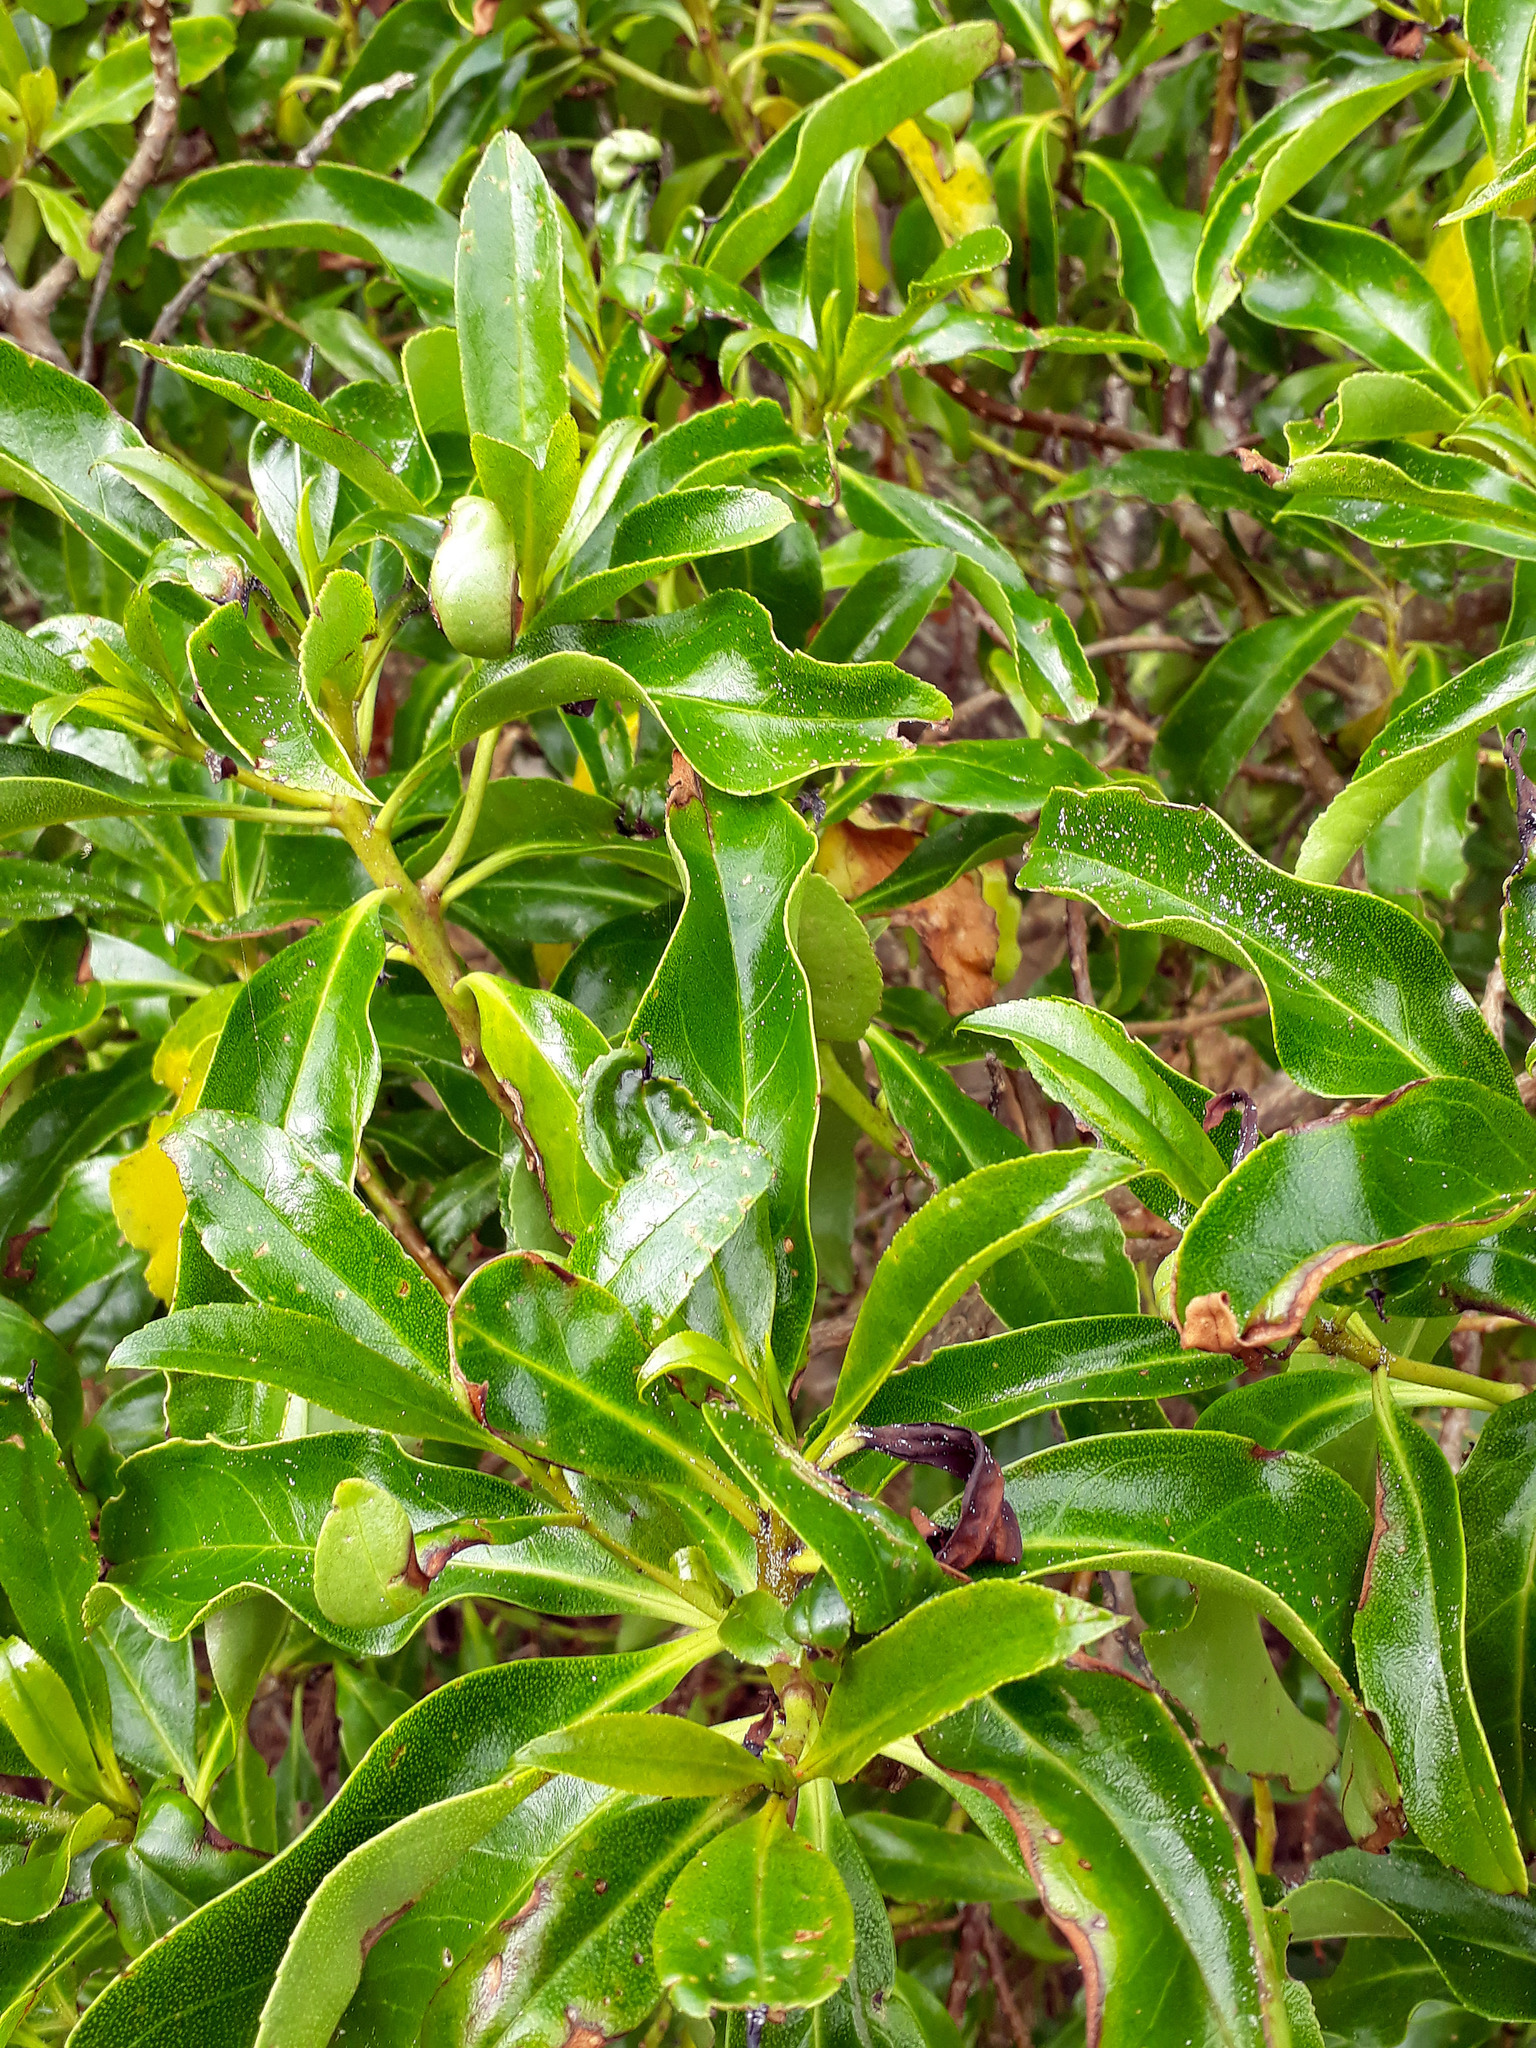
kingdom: Plantae
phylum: Tracheophyta
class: Magnoliopsida
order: Lamiales
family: Scrophulariaceae
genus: Myoporum
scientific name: Myoporum laetum
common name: Ngaio tree
